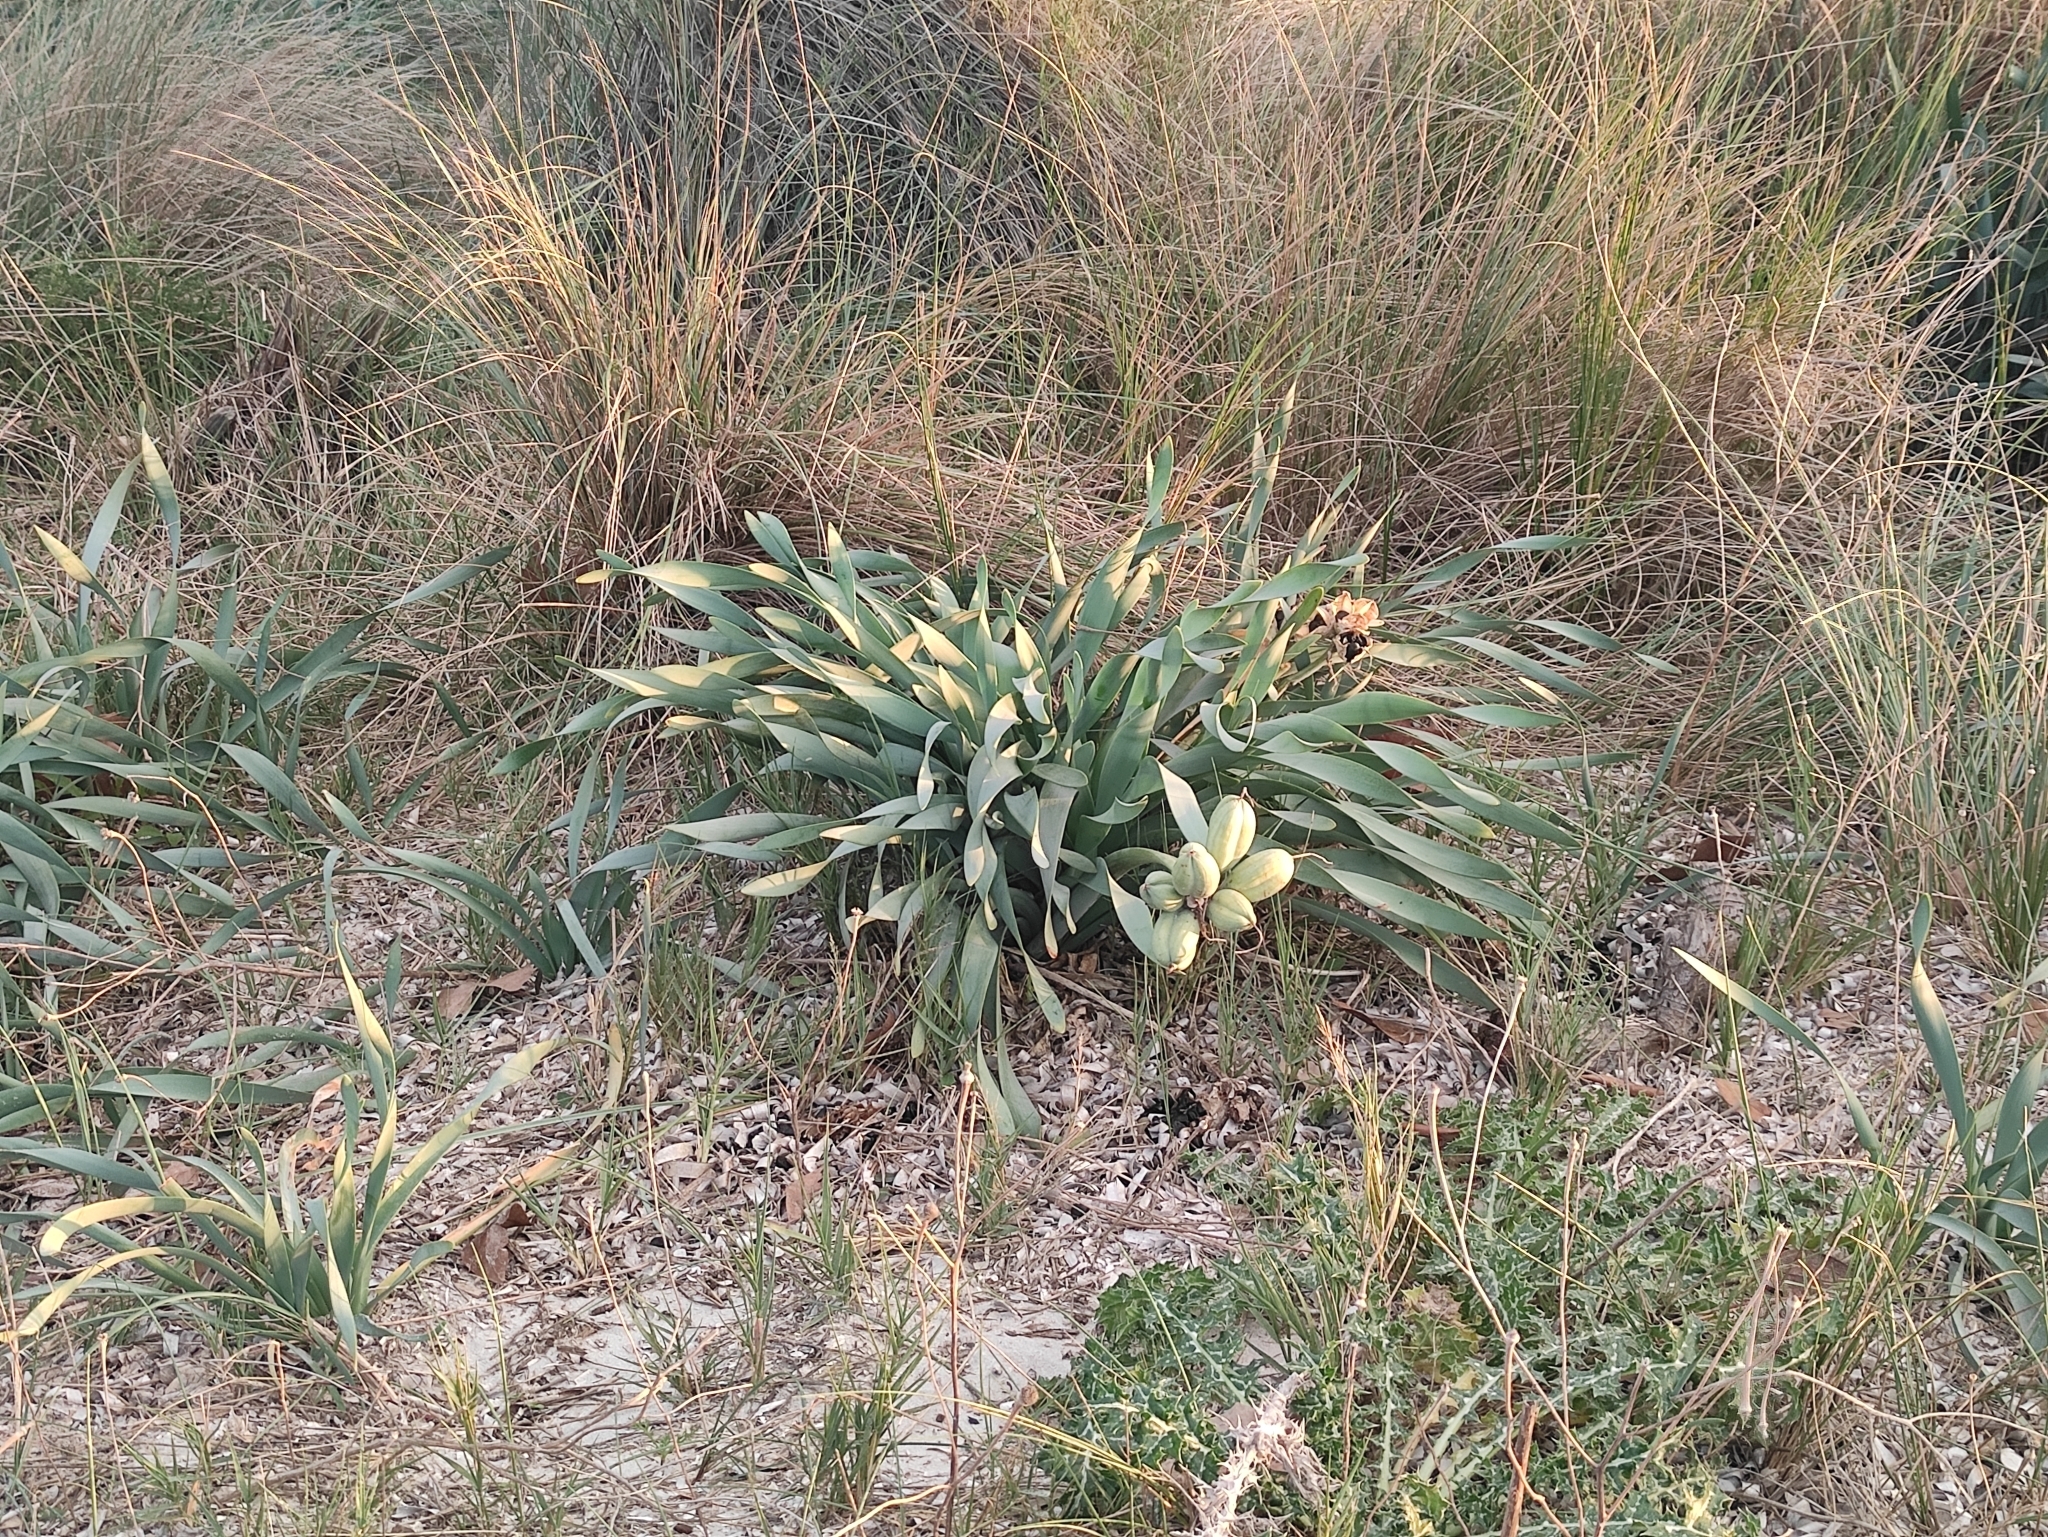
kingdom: Plantae
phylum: Tracheophyta
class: Liliopsida
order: Asparagales
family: Amaryllidaceae
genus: Pancratium
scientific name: Pancratium maritimum
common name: Sea-daffodil
